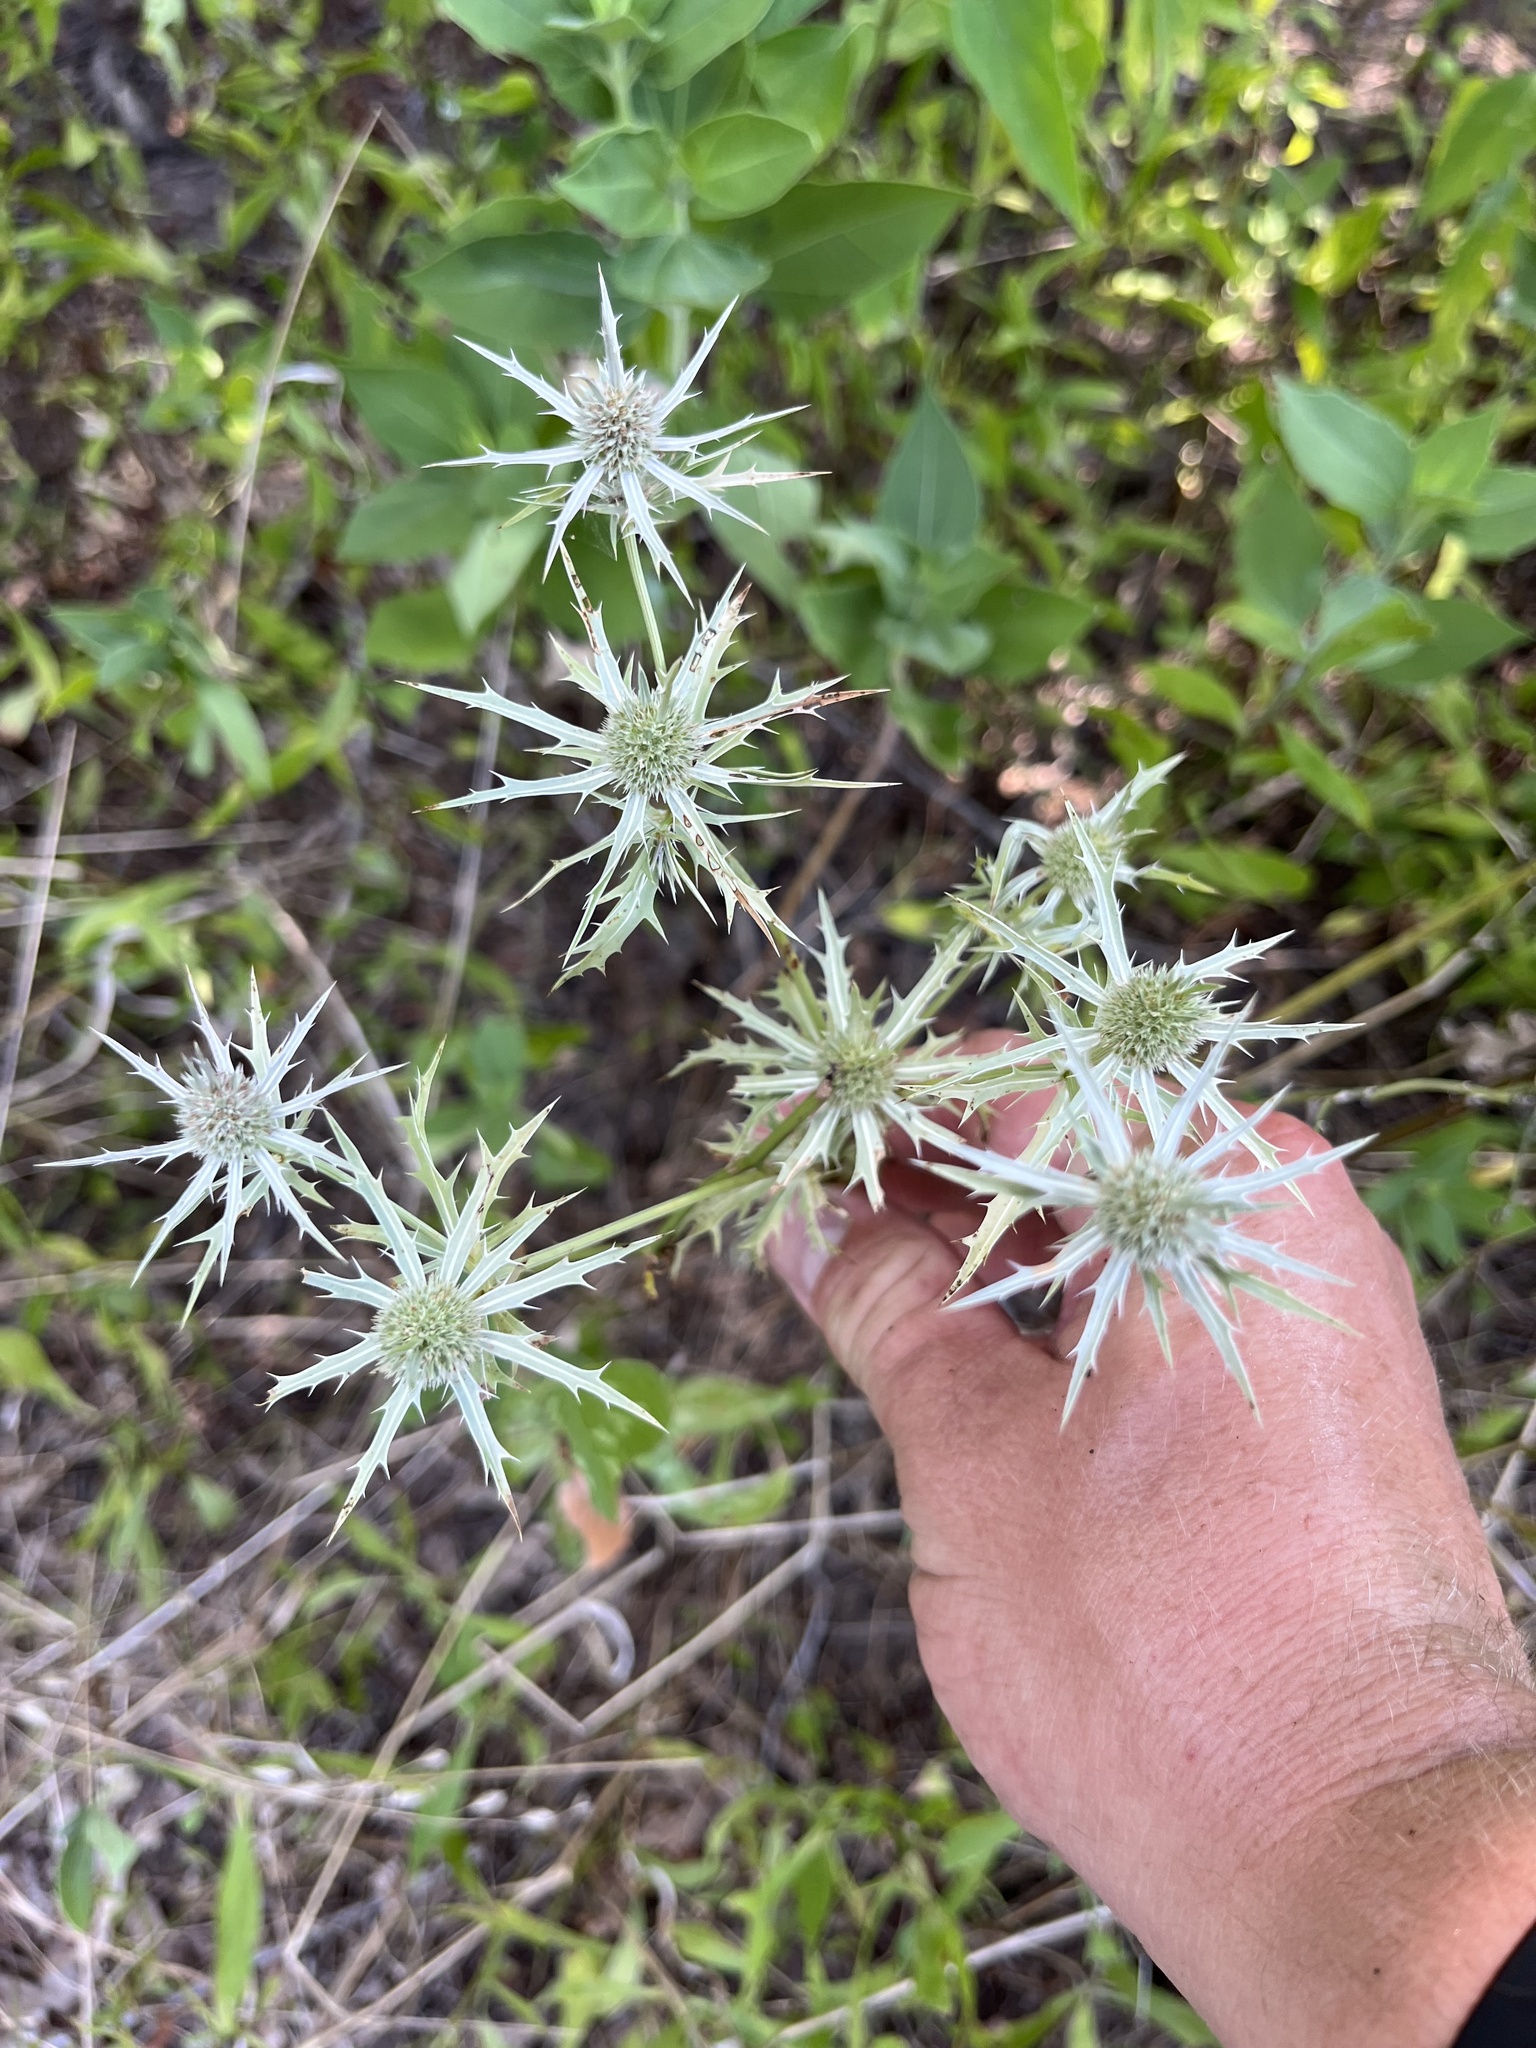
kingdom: Plantae
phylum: Tracheophyta
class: Magnoliopsida
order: Apiales
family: Apiaceae
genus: Eryngium
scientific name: Eryngium hookeri
